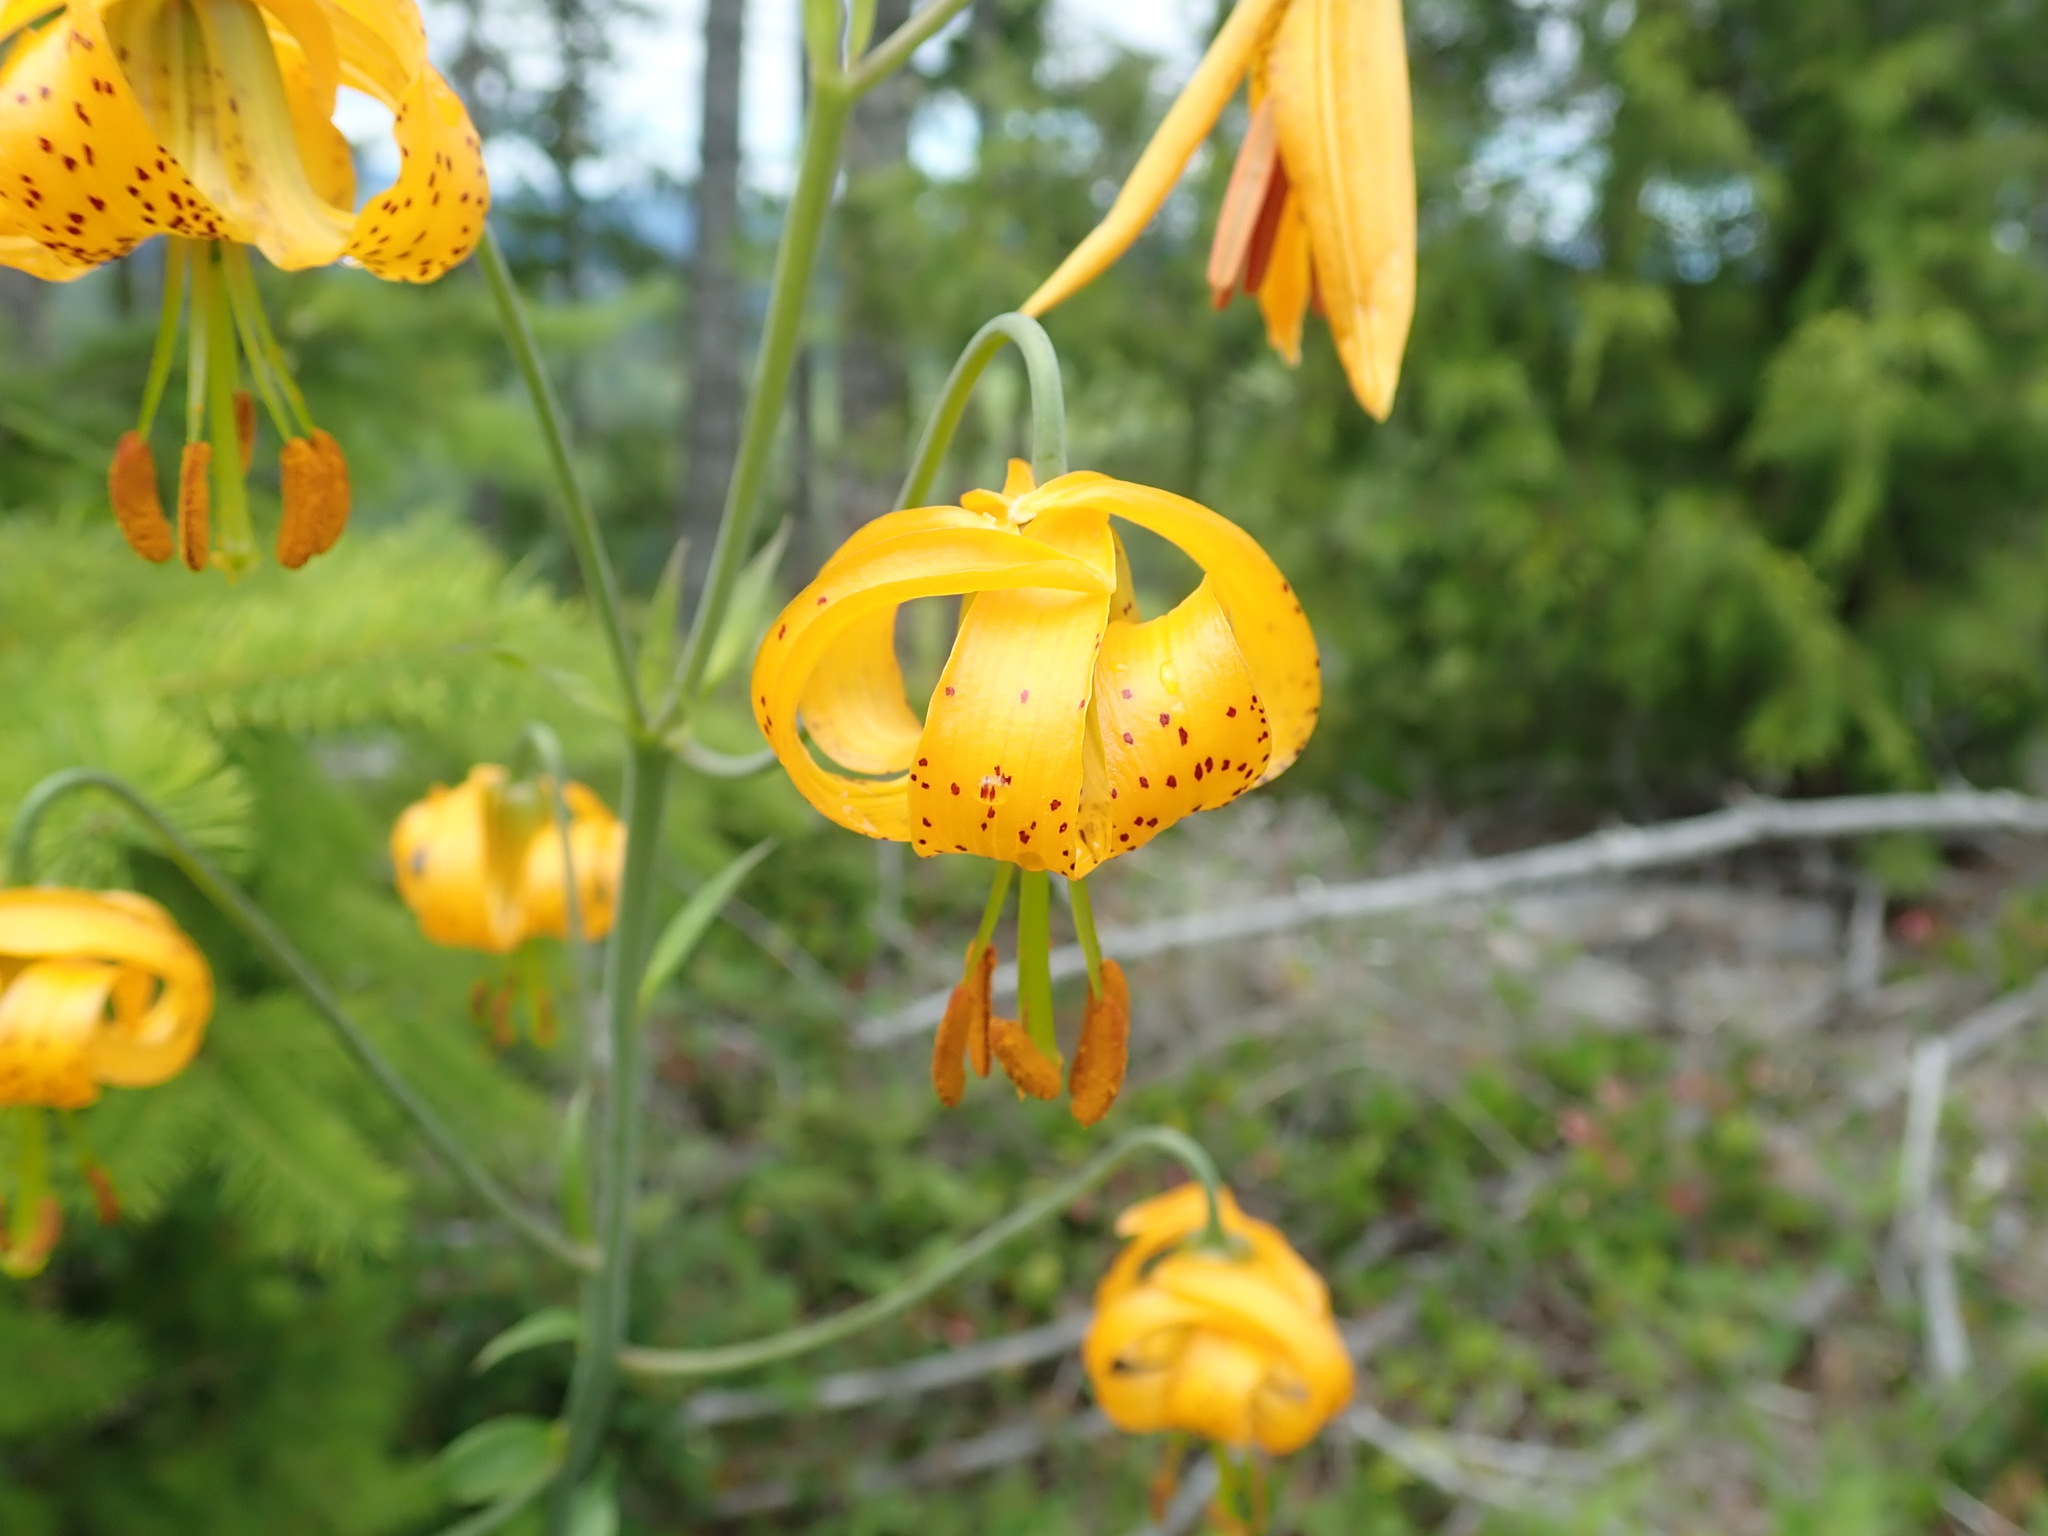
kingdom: Plantae
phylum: Tracheophyta
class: Liliopsida
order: Liliales
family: Liliaceae
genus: Lilium
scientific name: Lilium columbianum
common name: Columbia lily
